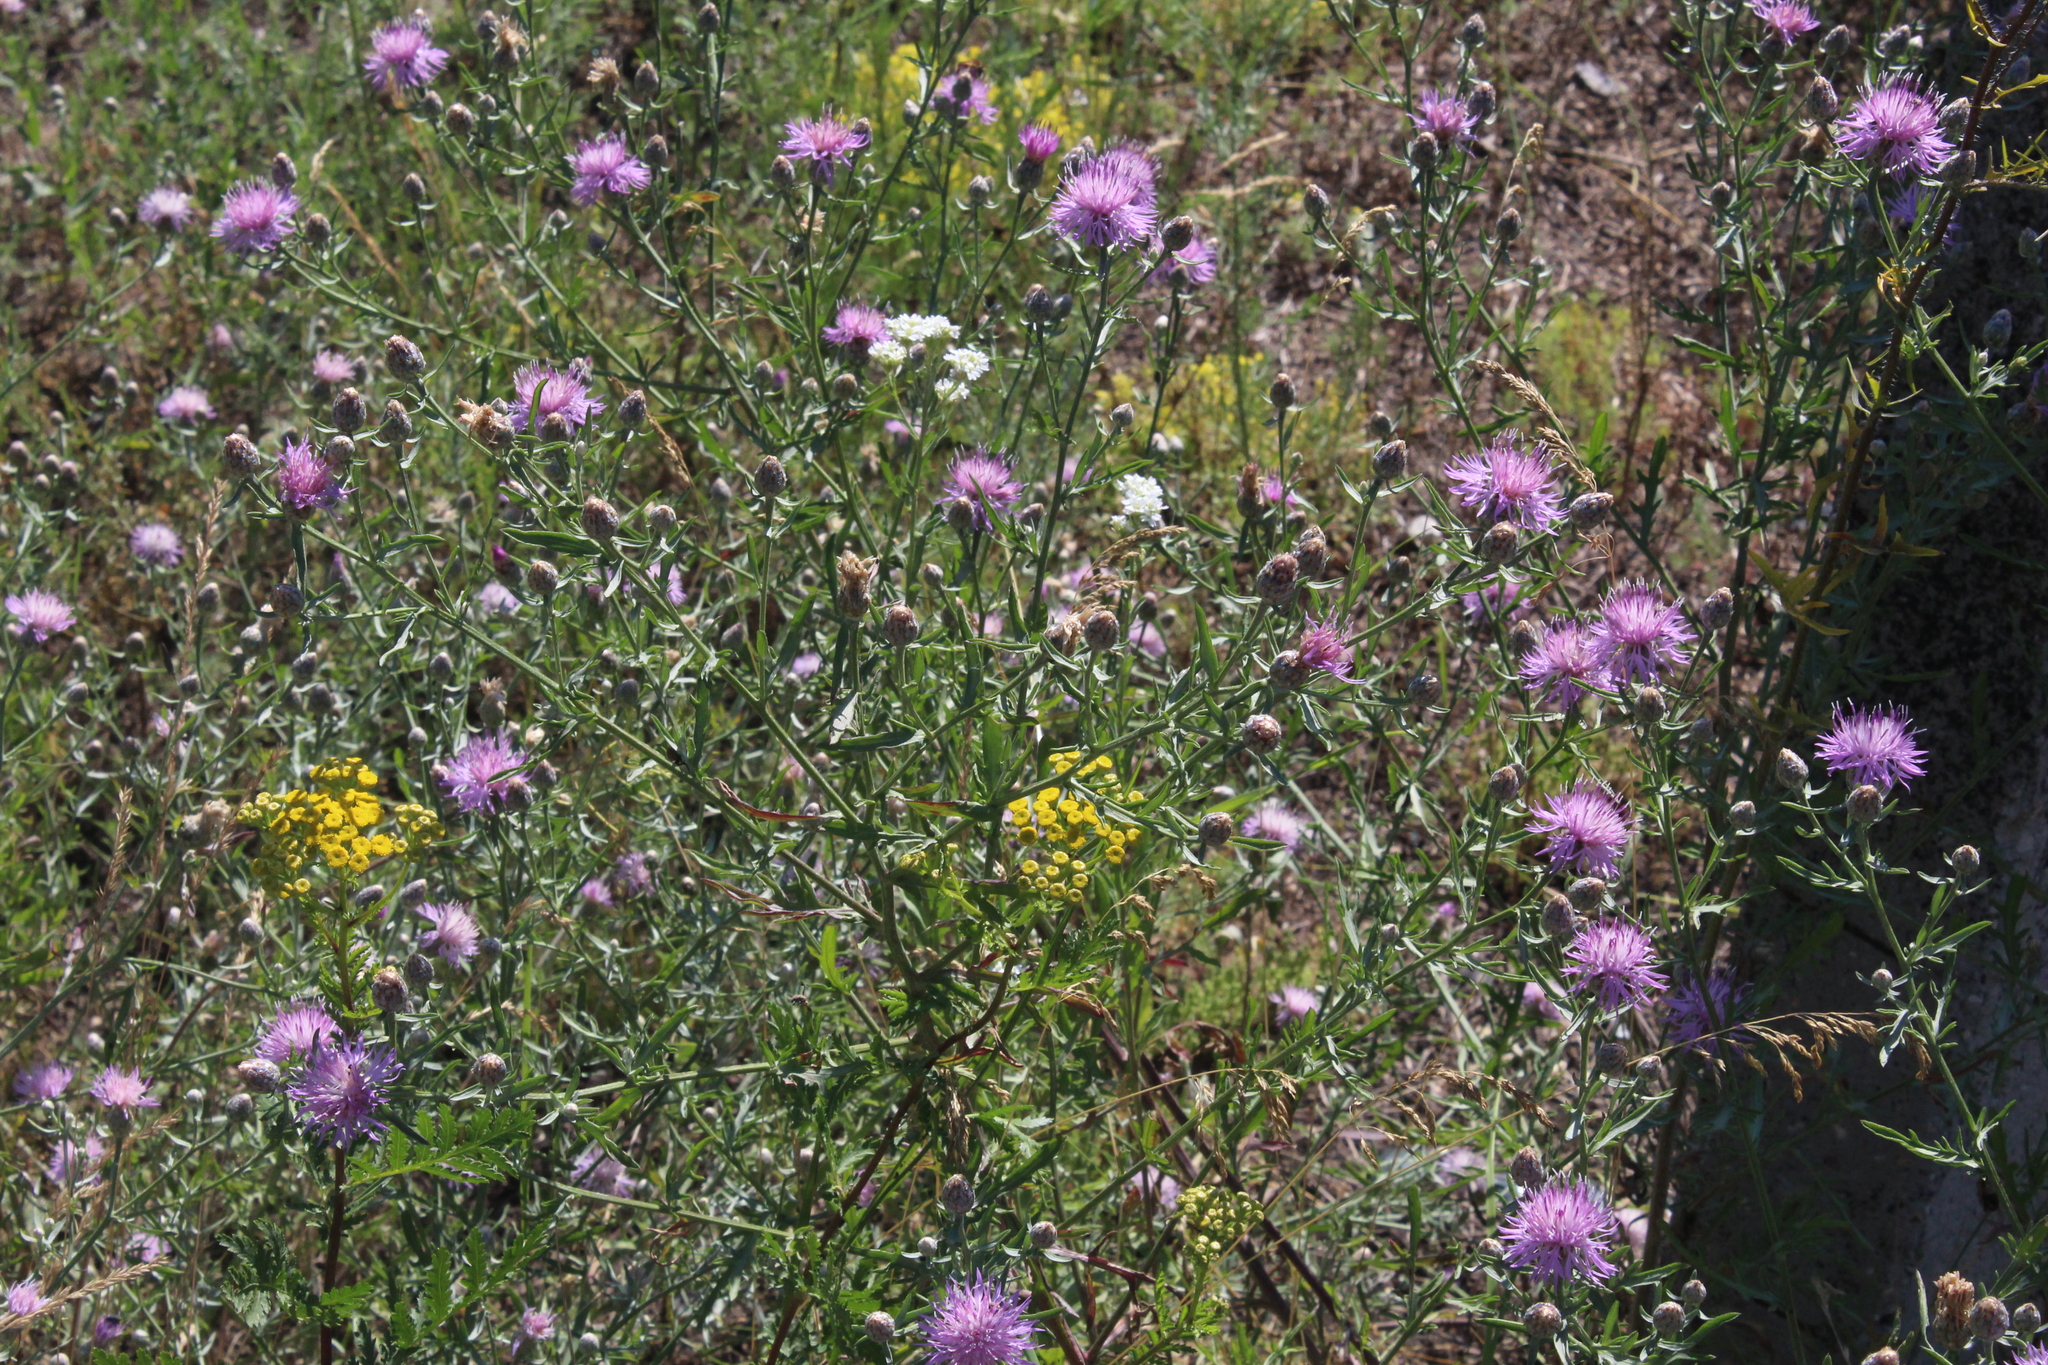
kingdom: Plantae
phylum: Tracheophyta
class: Magnoliopsida
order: Asterales
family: Asteraceae
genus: Centaurea
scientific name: Centaurea stoebe
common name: Spotted knapweed
